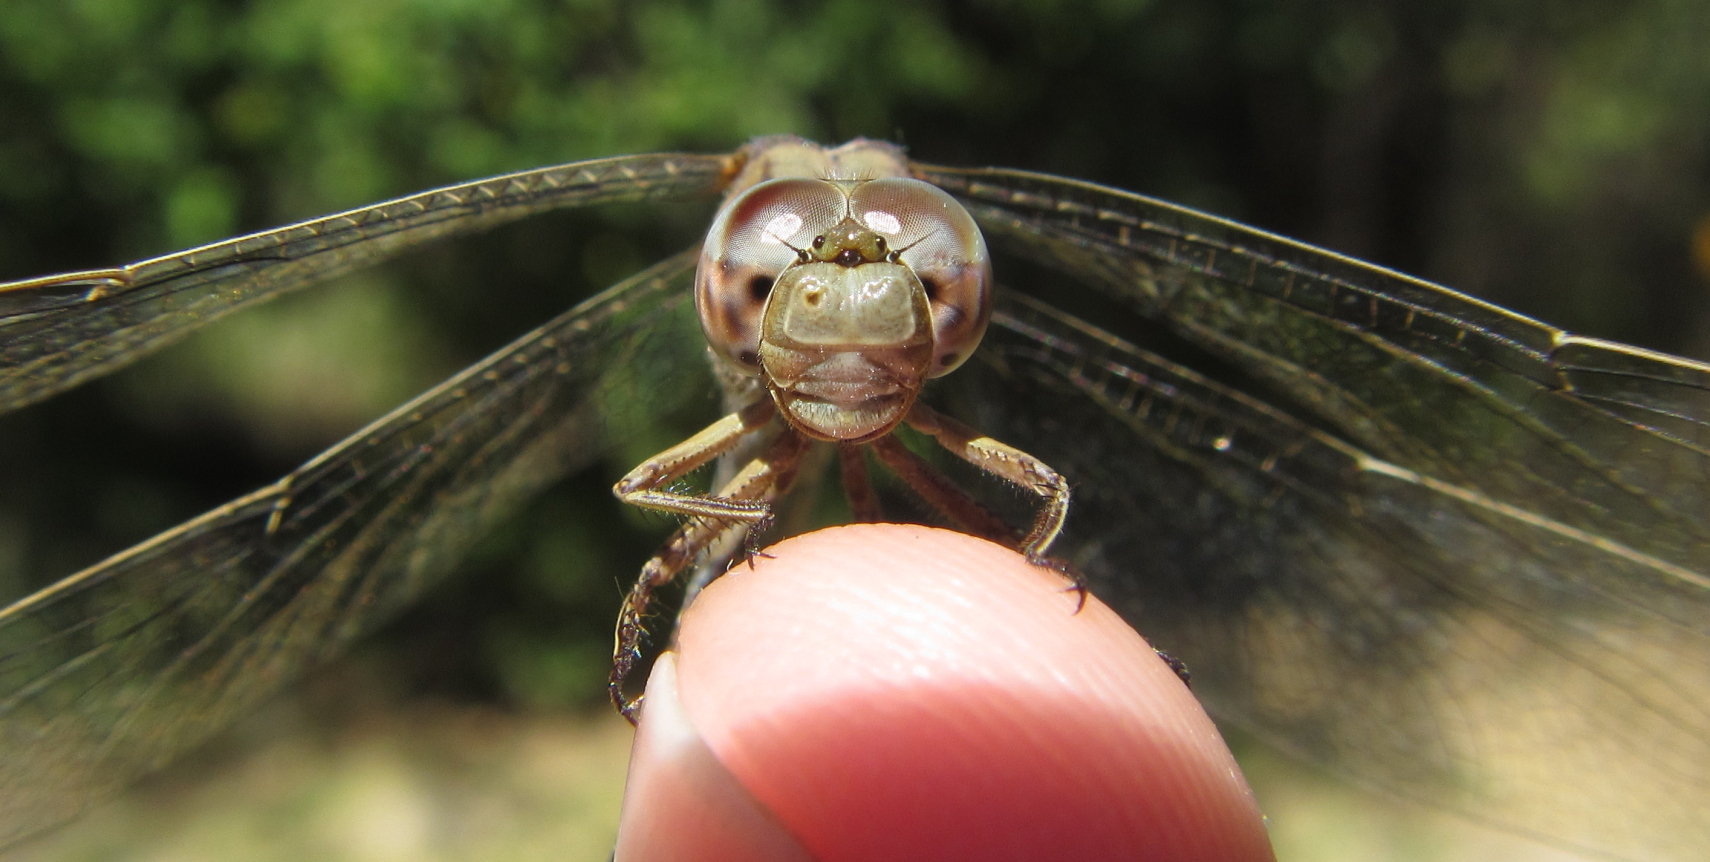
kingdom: Animalia
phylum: Arthropoda
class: Insecta
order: Odonata
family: Libellulidae
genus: Orthetrum
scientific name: Orthetrum chrysostigma
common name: Epaulet skimmer
